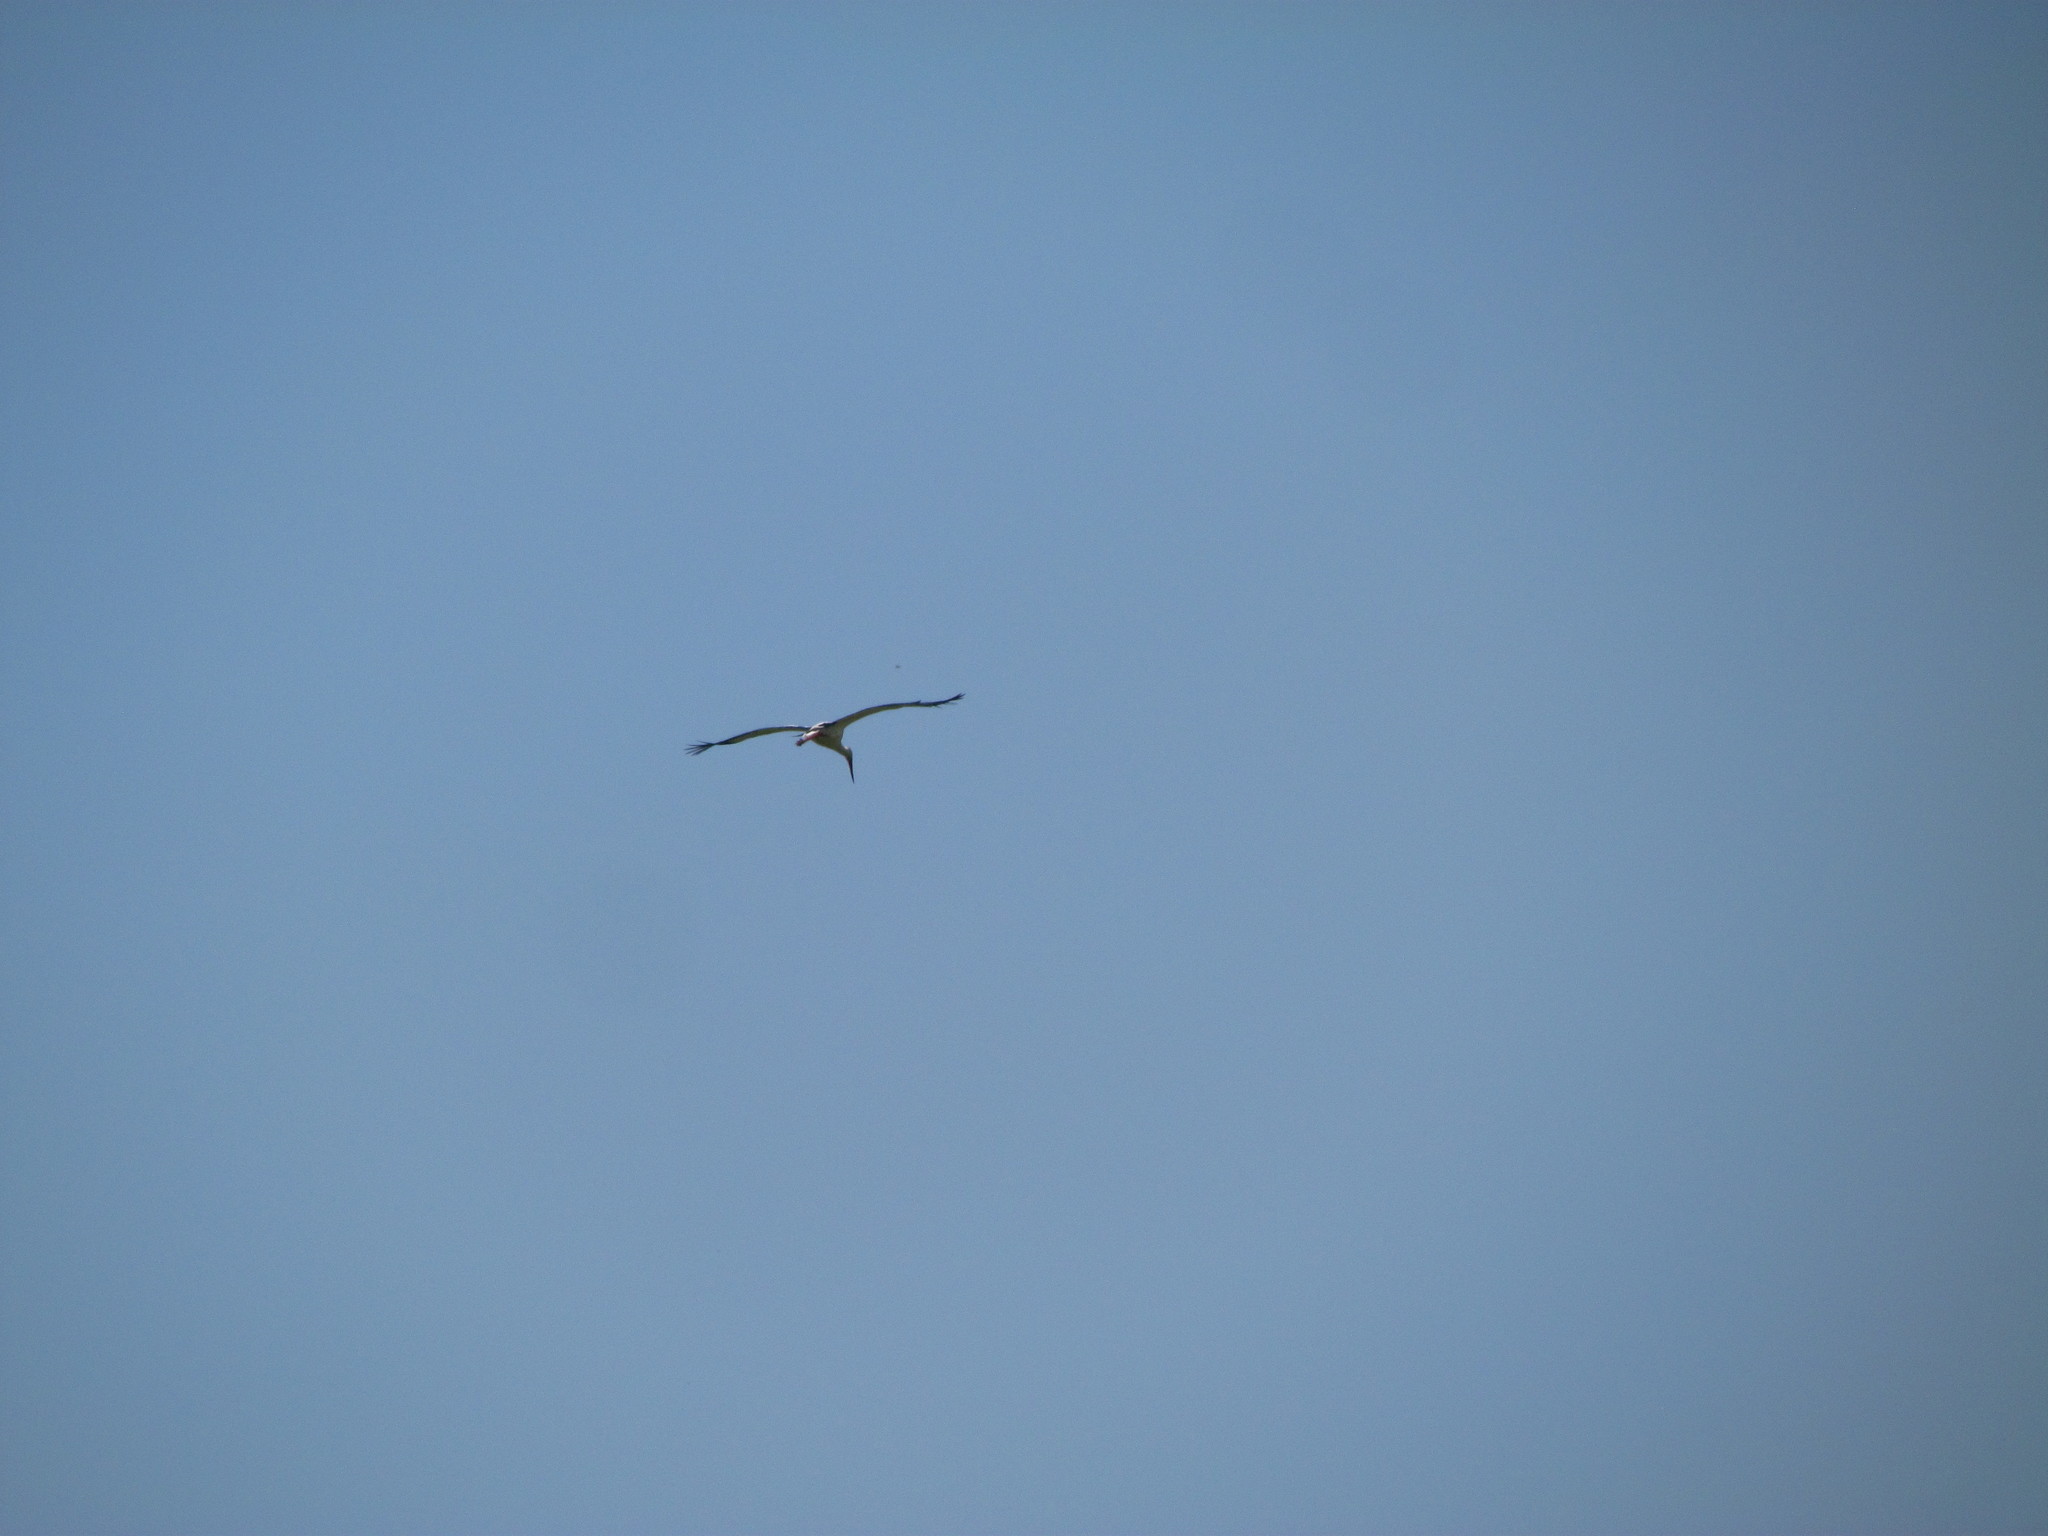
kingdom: Animalia
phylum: Chordata
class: Aves
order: Ciconiiformes
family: Ciconiidae
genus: Ciconia
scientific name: Ciconia maguari
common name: Maguari stork
